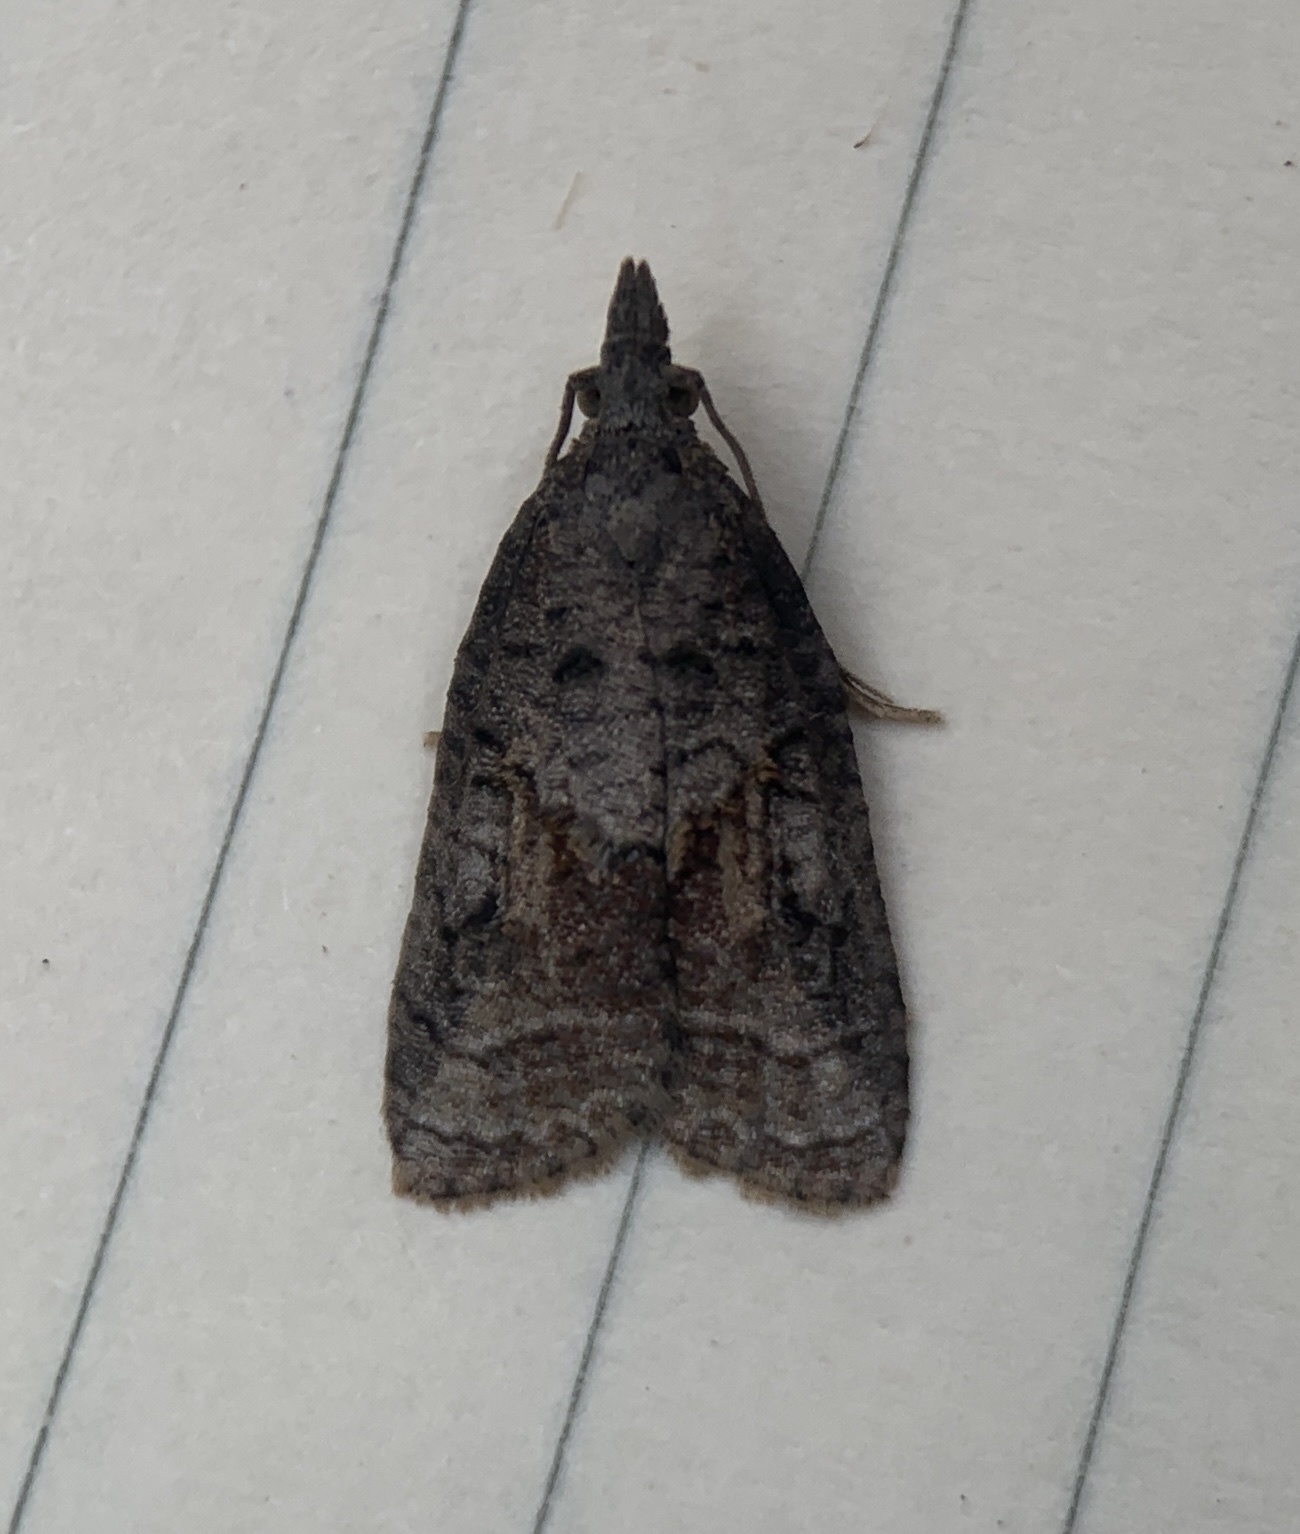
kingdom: Animalia
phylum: Arthropoda
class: Insecta
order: Lepidoptera
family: Tortricidae
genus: Platynota
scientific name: Platynota idaeusalis
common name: Tufted apple bud moth
